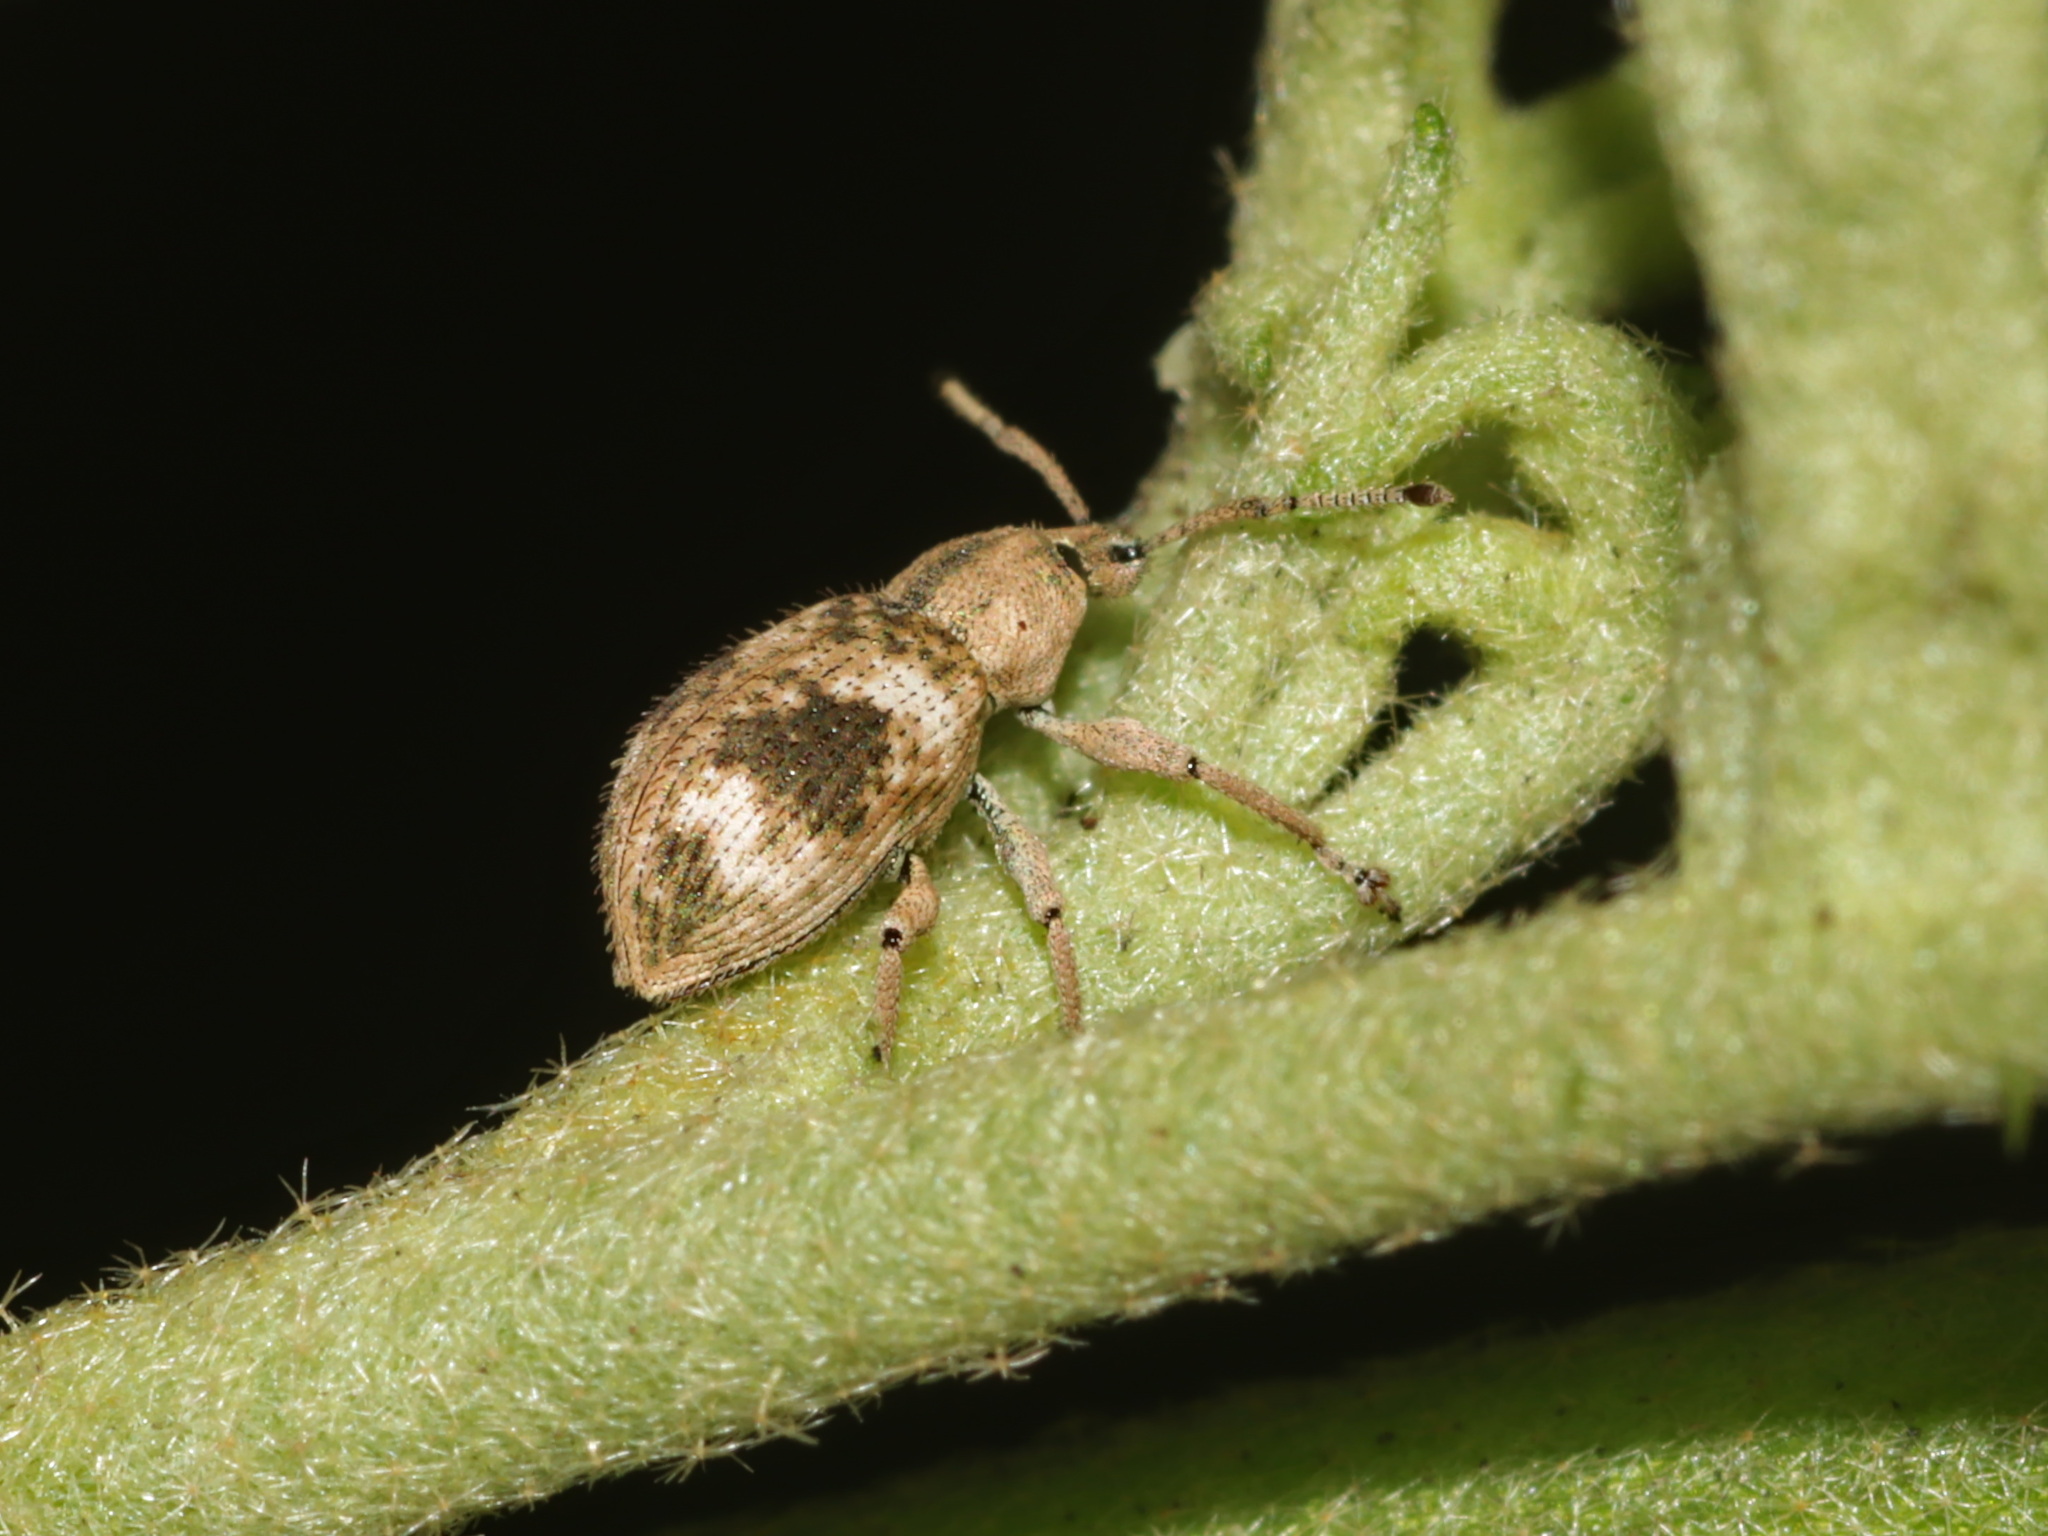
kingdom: Animalia
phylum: Arthropoda
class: Insecta
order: Coleoptera
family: Curculionidae
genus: Phytoscaphus
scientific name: Phytoscaphus triangularis
